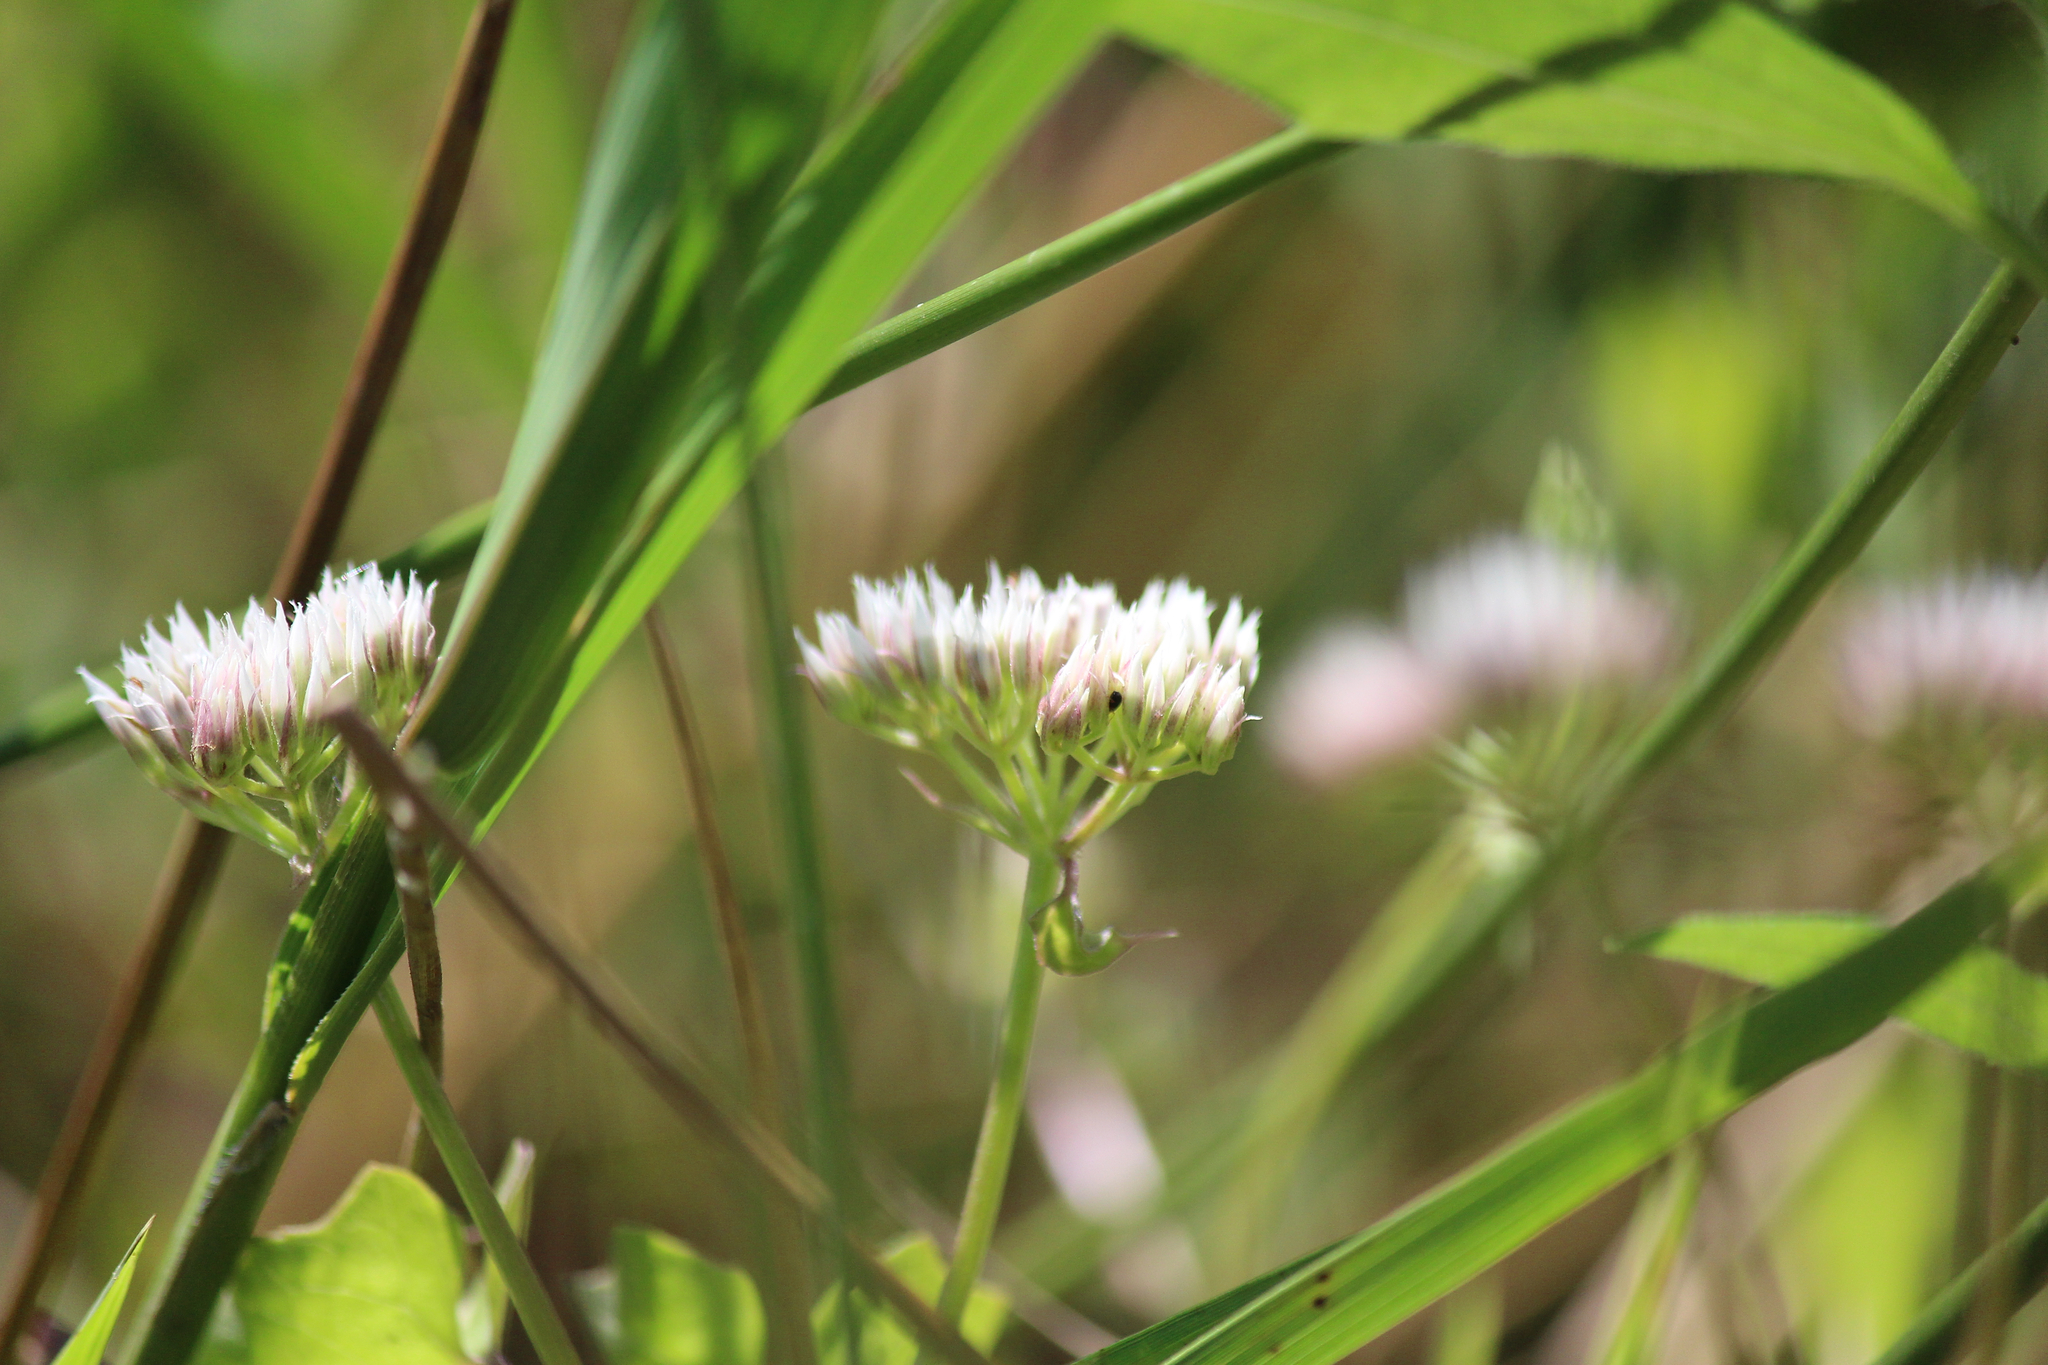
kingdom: Plantae
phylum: Tracheophyta
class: Magnoliopsida
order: Asterales
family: Asteraceae
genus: Mikania
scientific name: Mikania scandens
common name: Climbing hempvine
